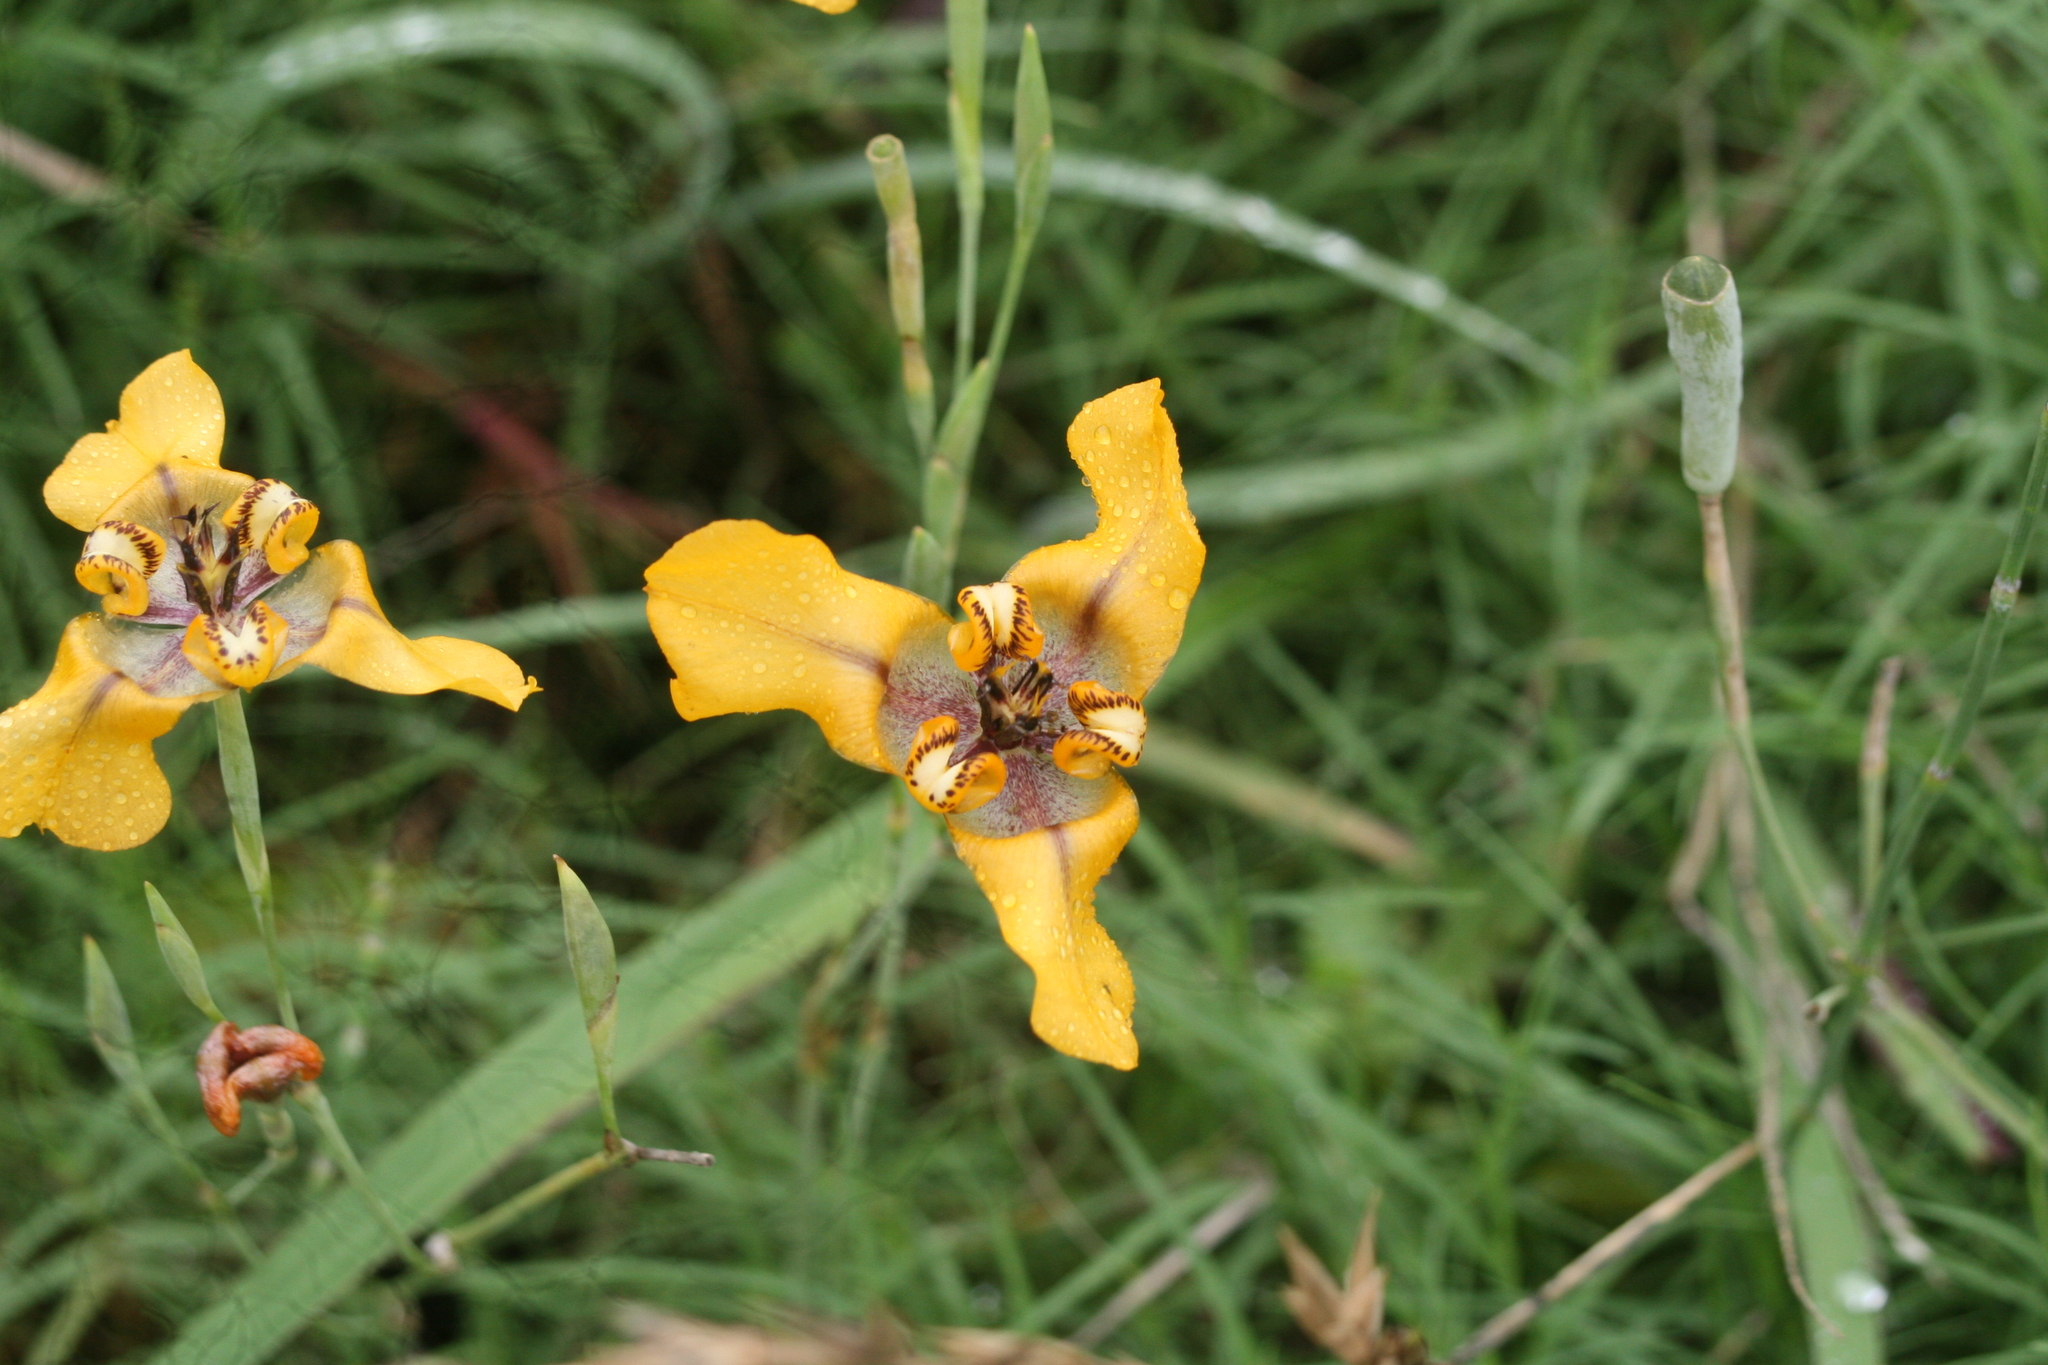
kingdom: Plantae
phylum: Tracheophyta
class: Liliopsida
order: Asparagales
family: Iridaceae
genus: Cypella
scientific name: Cypella herbertii
